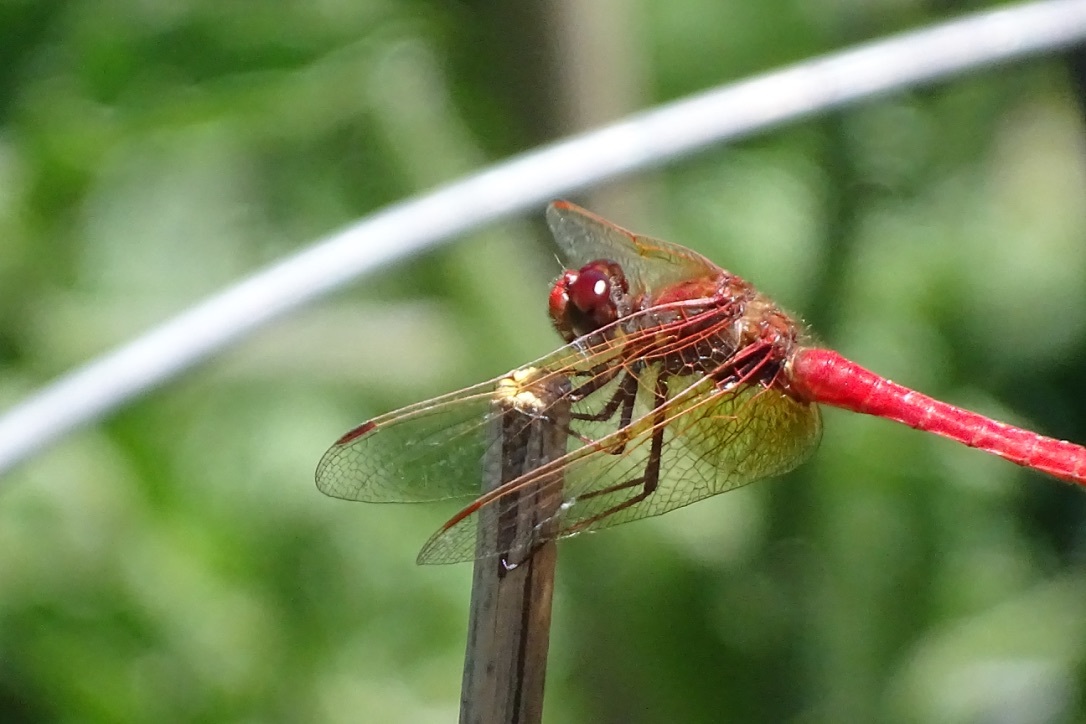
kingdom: Animalia
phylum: Arthropoda
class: Insecta
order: Odonata
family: Libellulidae
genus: Sympetrum
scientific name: Sympetrum illotum
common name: Cardinal meadowhawk
